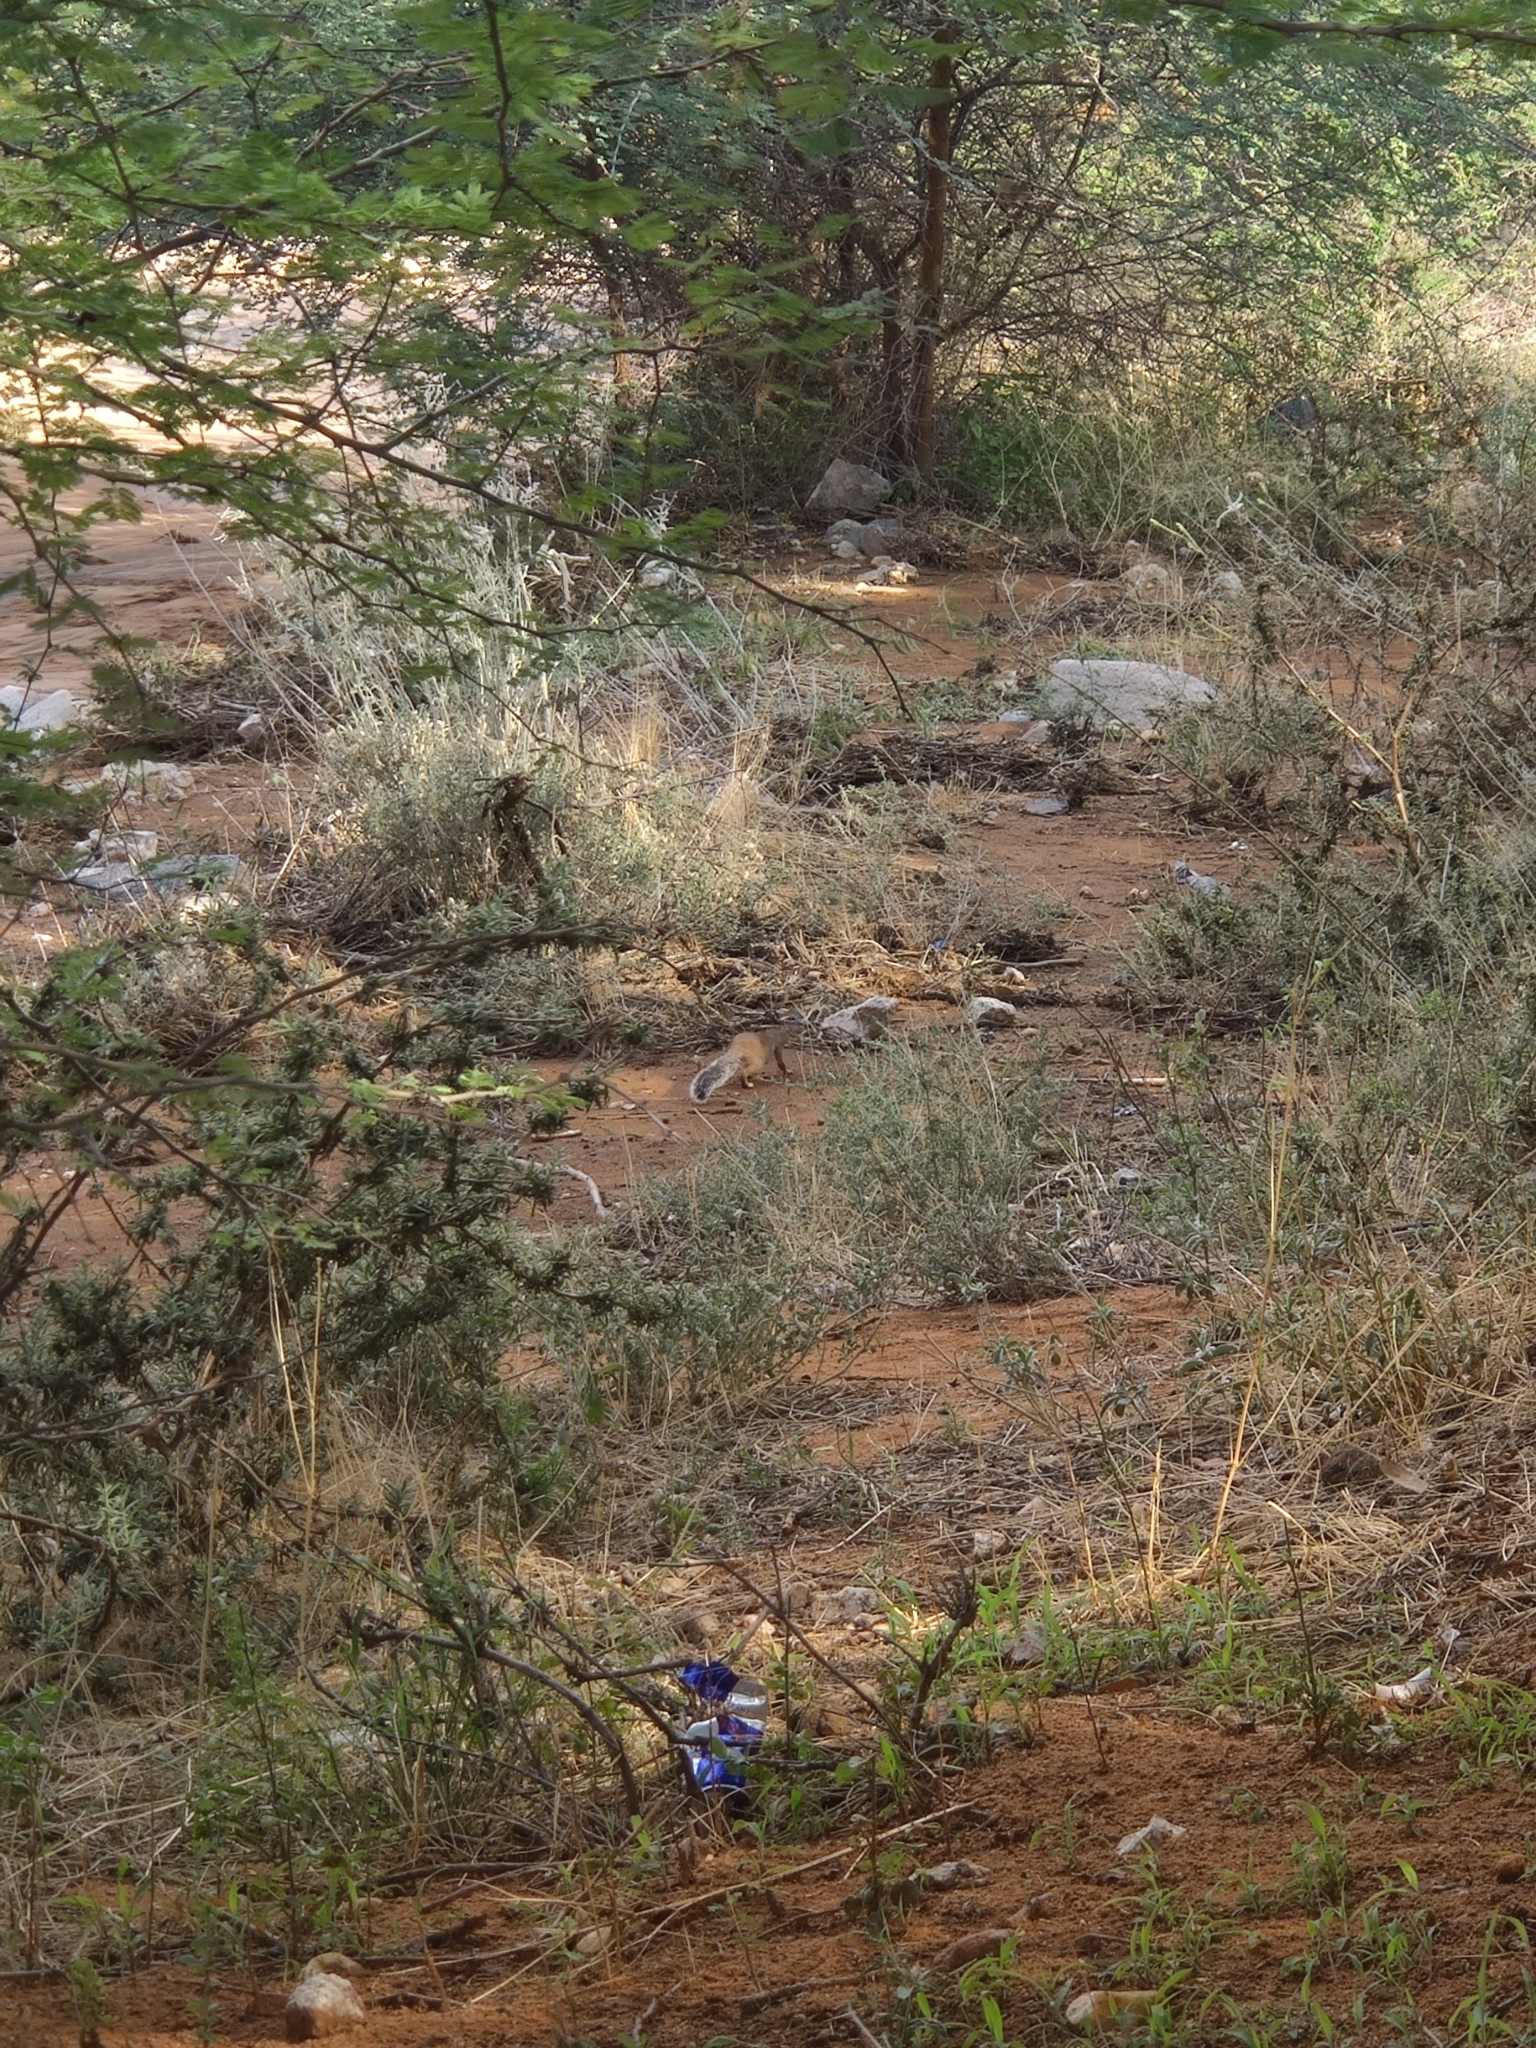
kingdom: Animalia
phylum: Chordata
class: Mammalia
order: Rodentia
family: Sciuridae
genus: Xerus
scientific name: Xerus rutilus
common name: Unstriped ground squirrel
